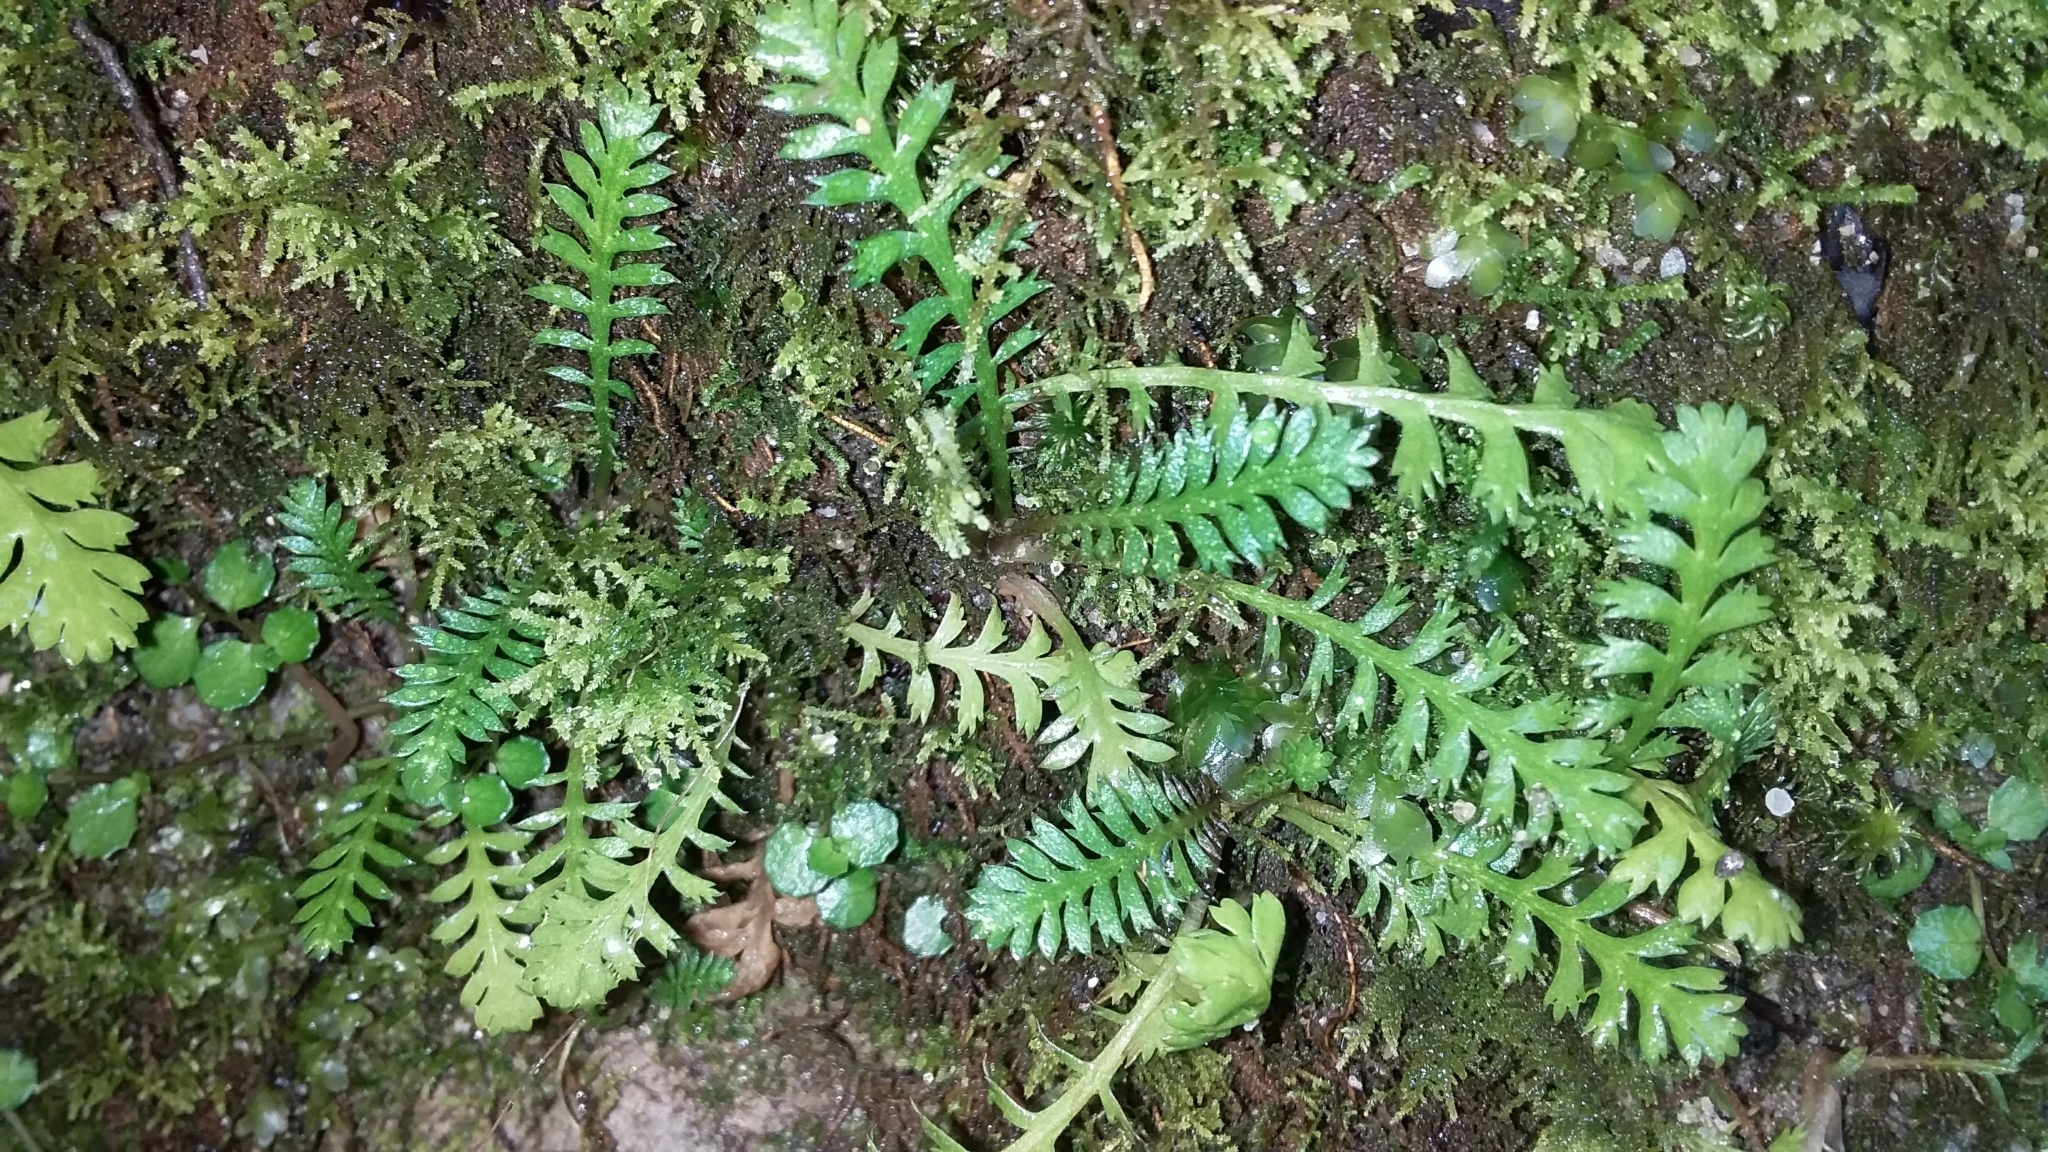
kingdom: Plantae
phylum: Tracheophyta
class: Magnoliopsida
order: Asterales
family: Asteraceae
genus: Leptinella
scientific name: Leptinella squalida
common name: New zealand brass-buttons
